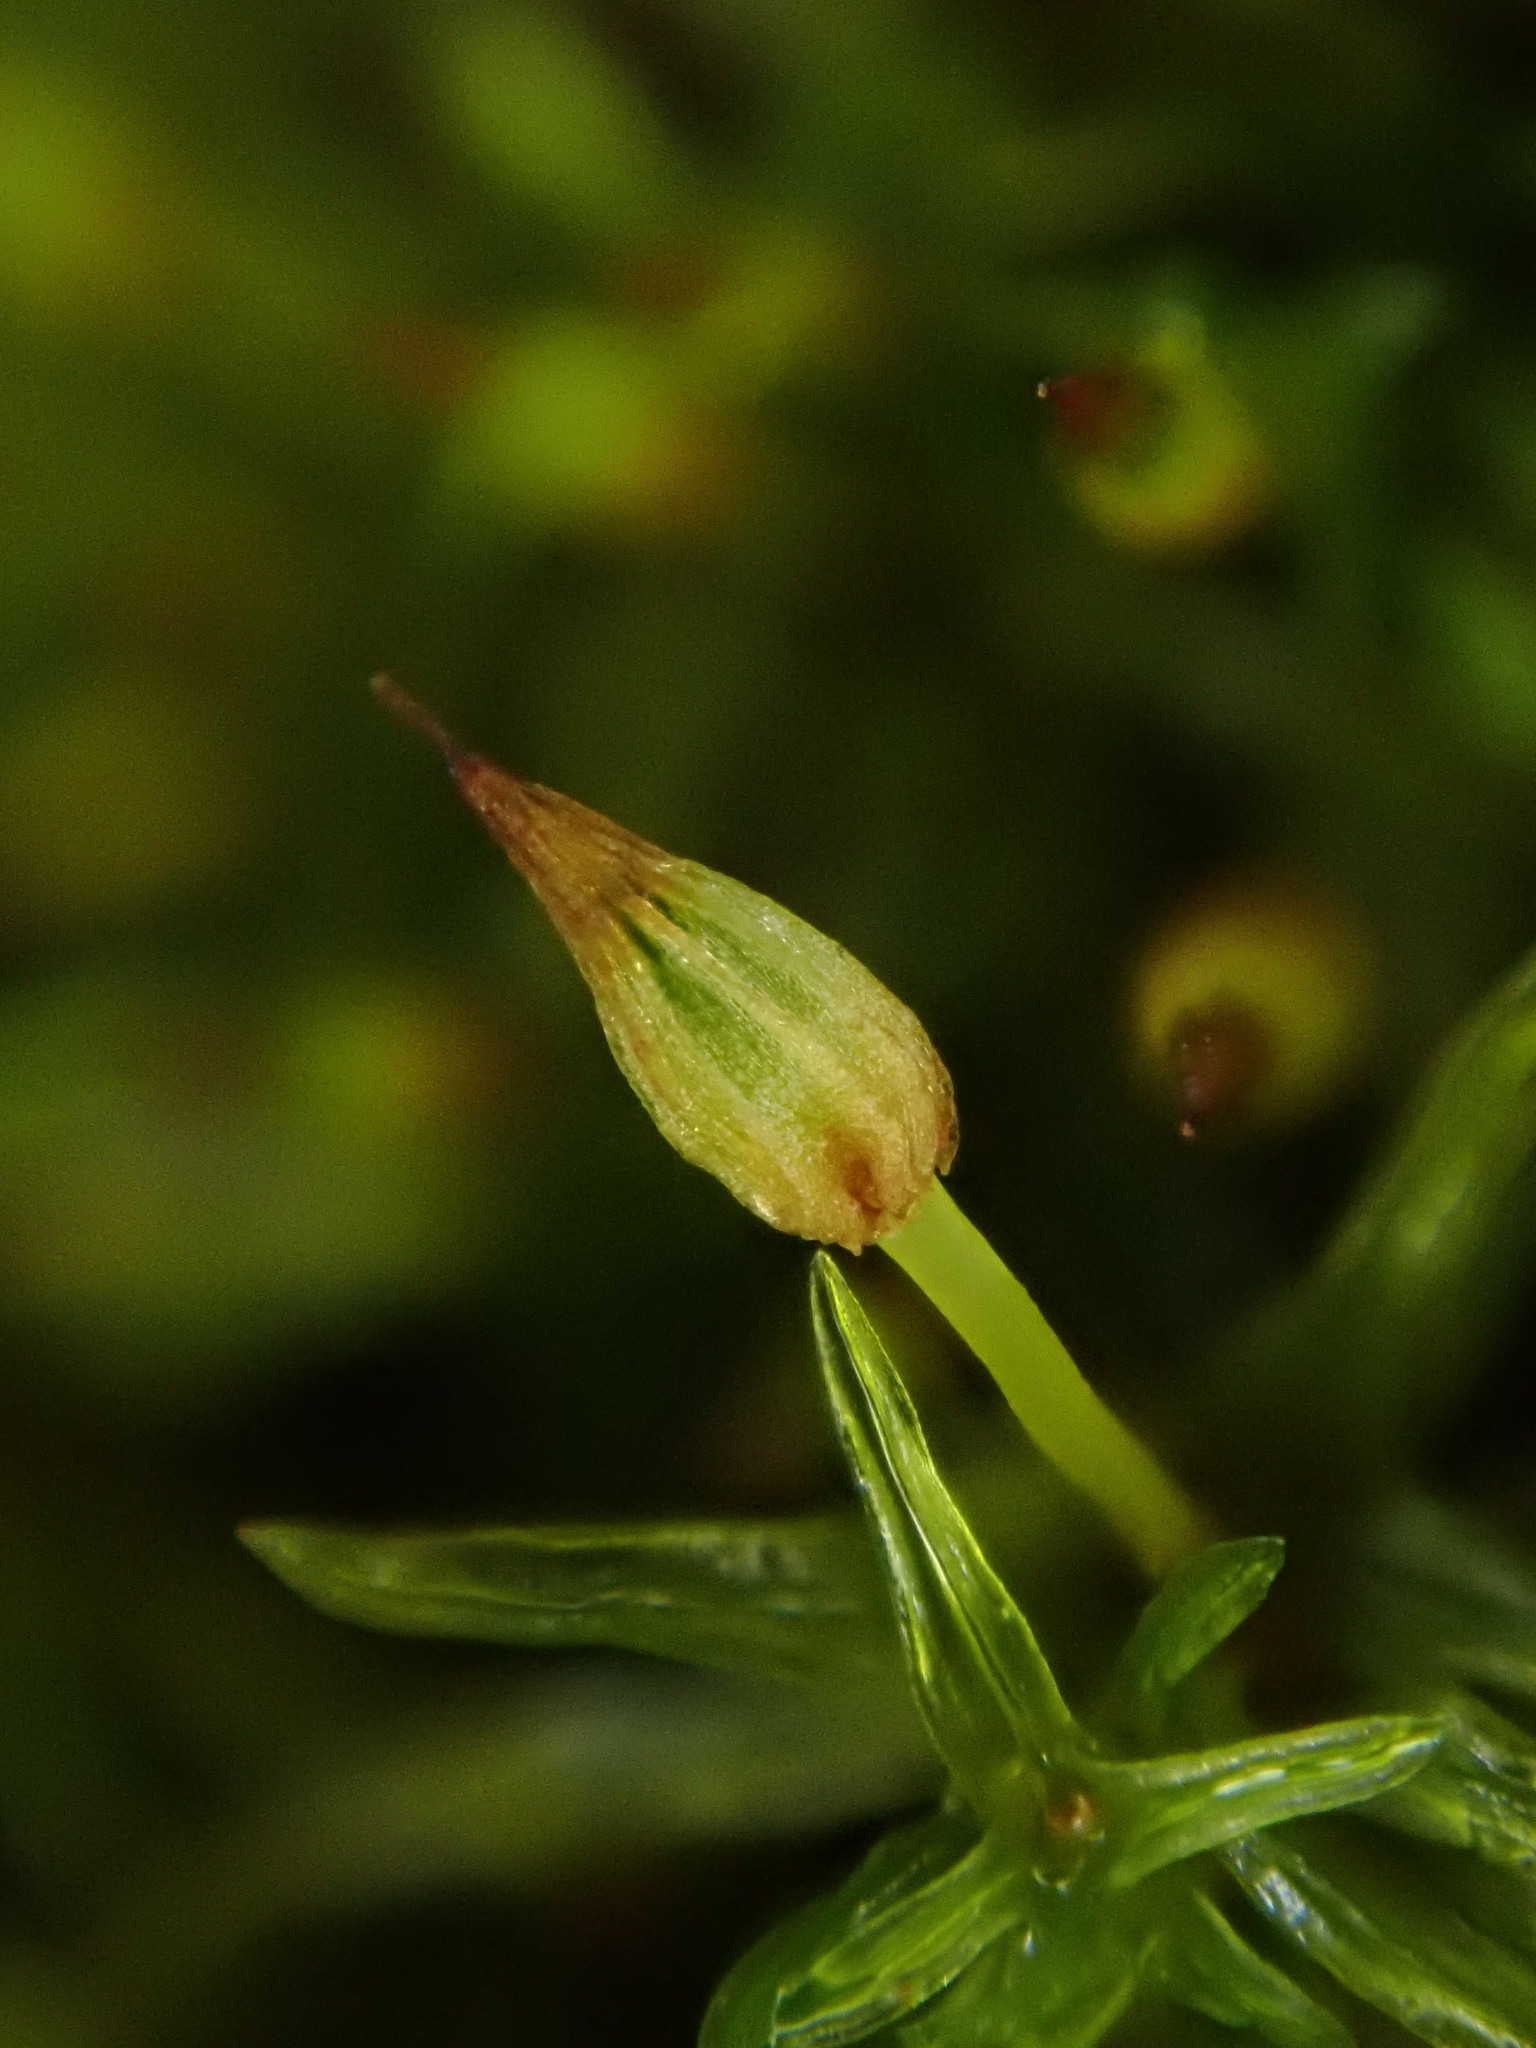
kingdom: Plantae
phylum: Bryophyta
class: Bryopsida
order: Orthotrichales
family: Orthotrichaceae
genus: Orthotrichum
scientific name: Orthotrichum pulchellum
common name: Elegant bristle-moss
